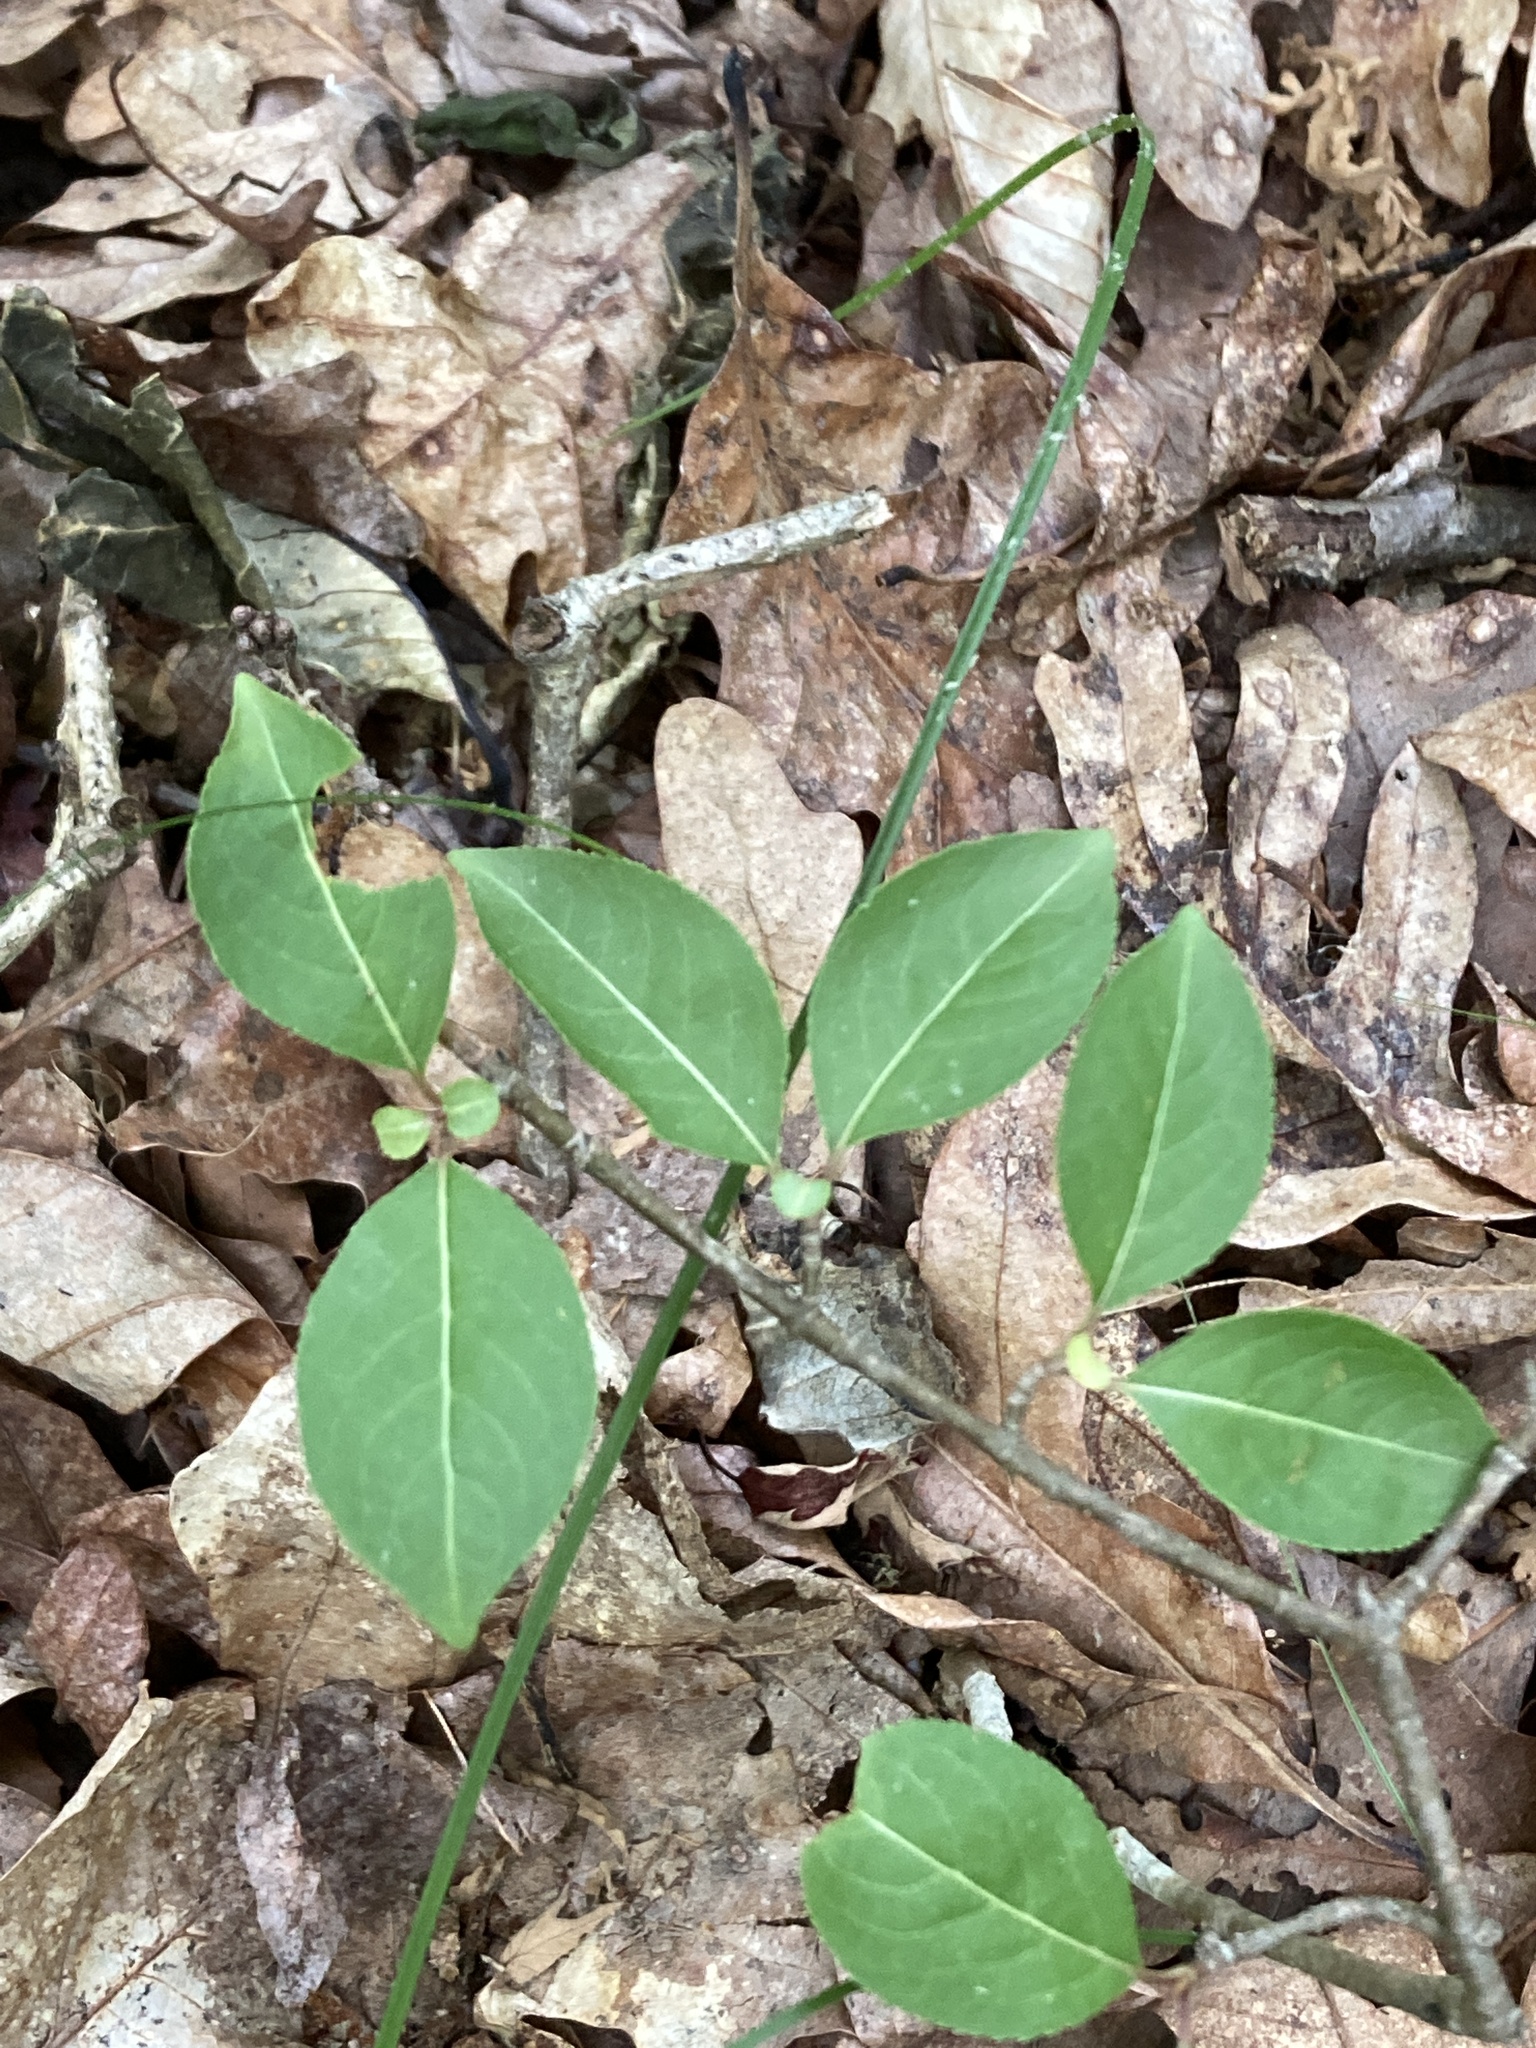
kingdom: Plantae
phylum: Tracheophyta
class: Magnoliopsida
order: Dipsacales
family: Viburnaceae
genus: Viburnum
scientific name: Viburnum prunifolium
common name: Black haw
